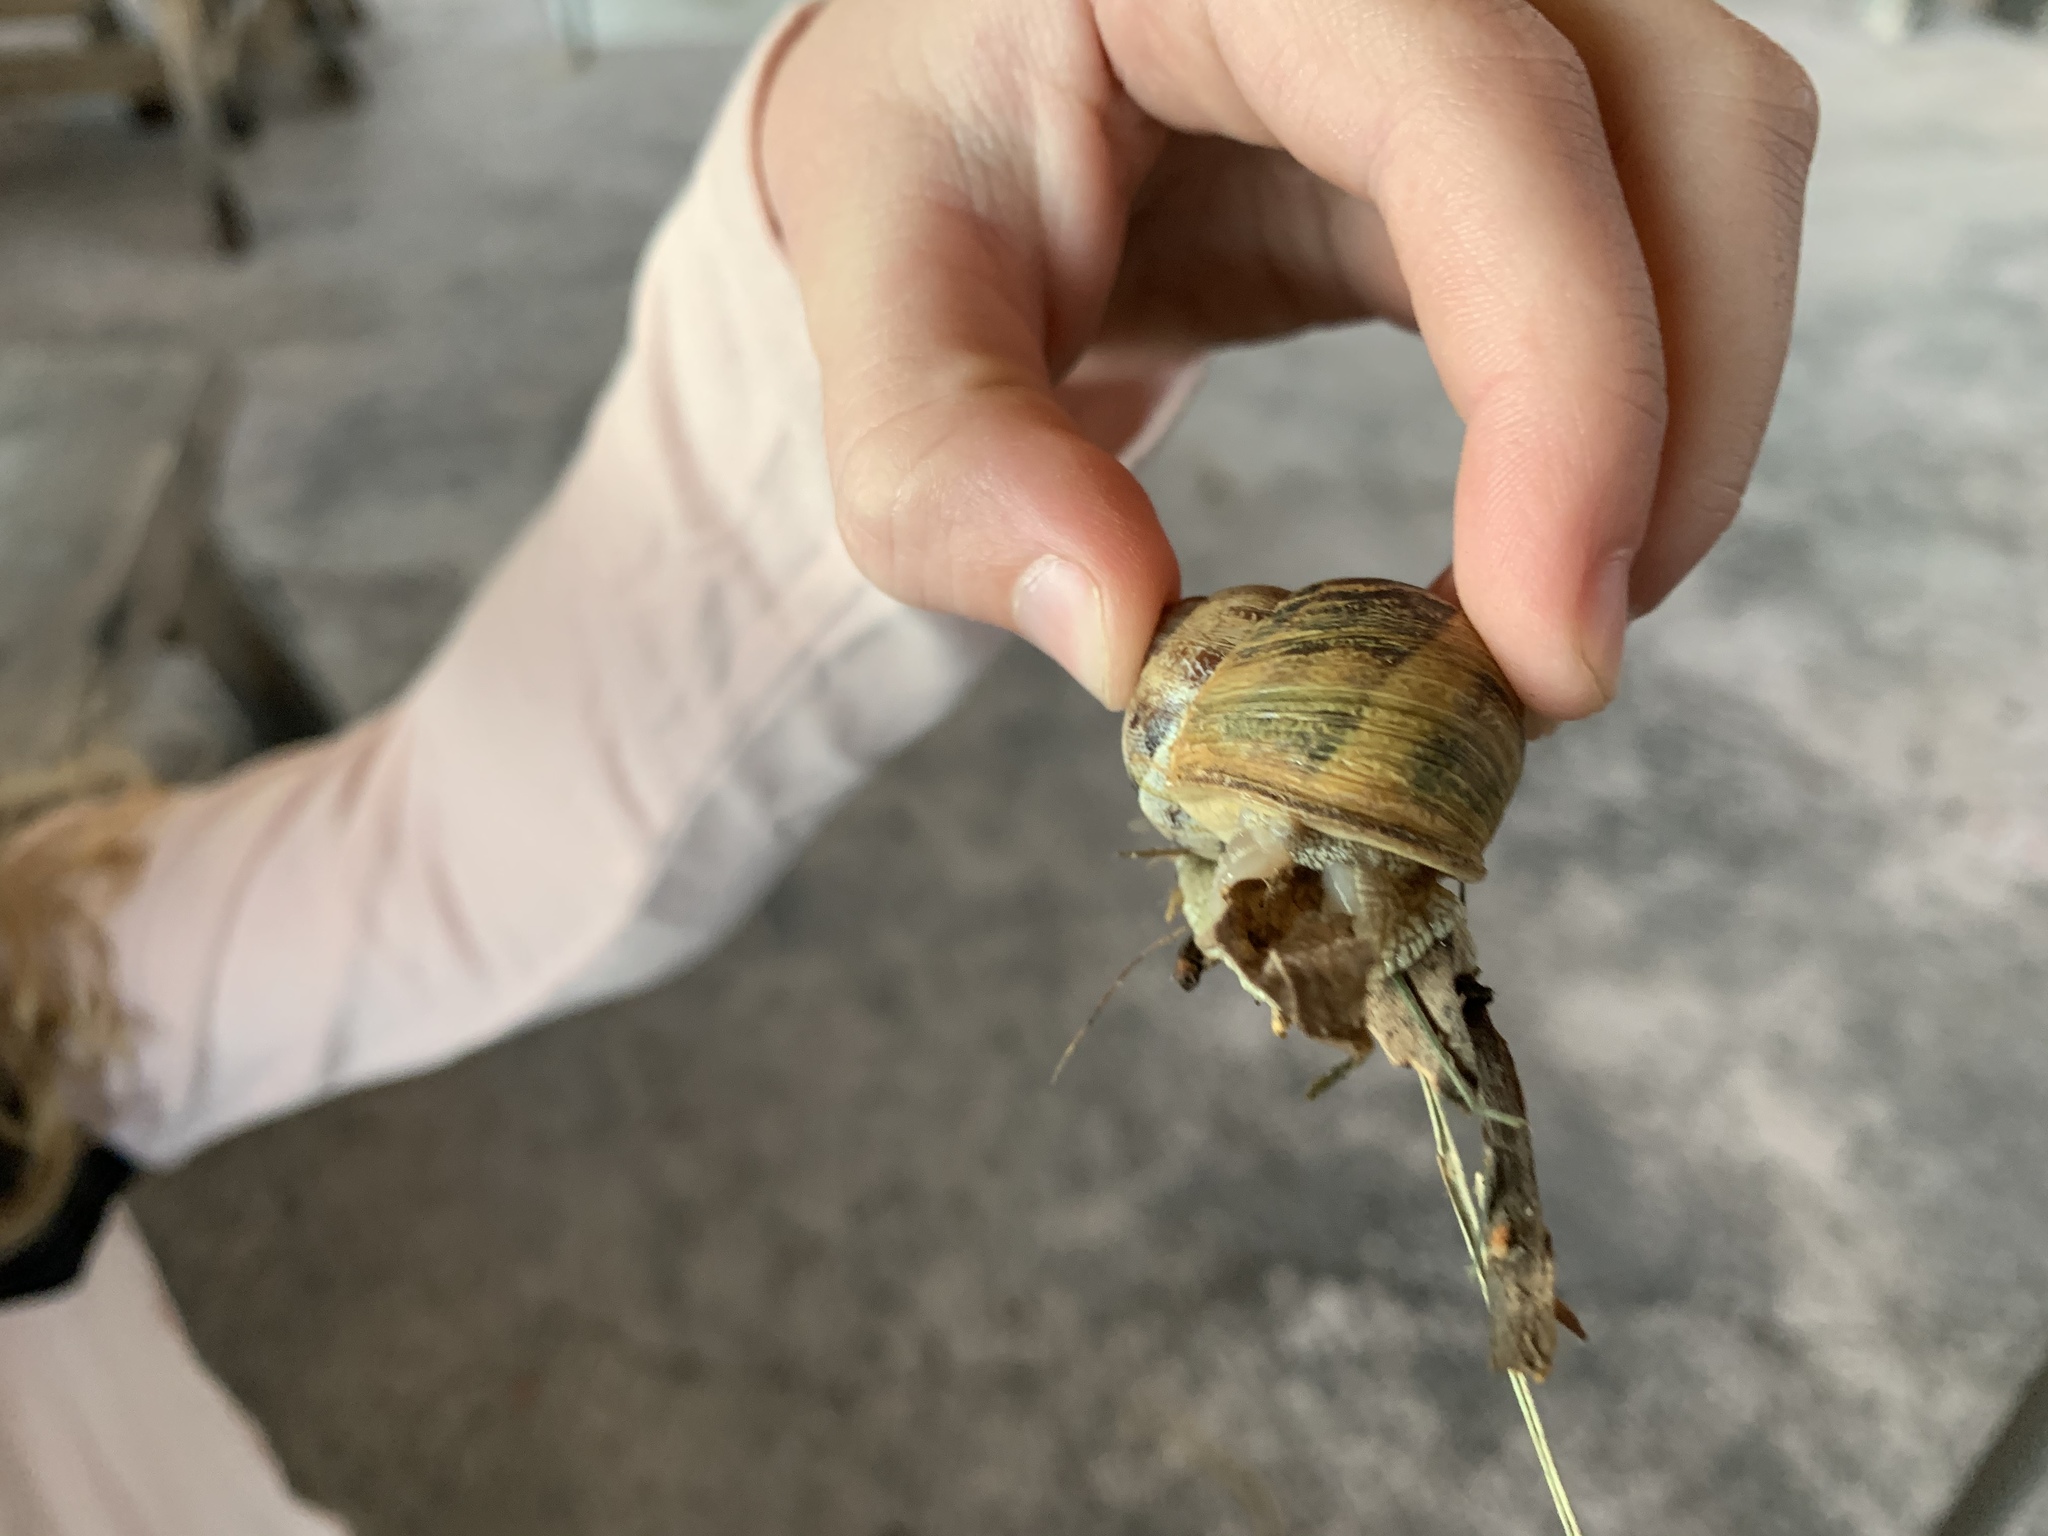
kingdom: Animalia
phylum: Mollusca
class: Gastropoda
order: Stylommatophora
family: Helicidae
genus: Cornu
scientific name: Cornu aspersum
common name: Brown garden snail
